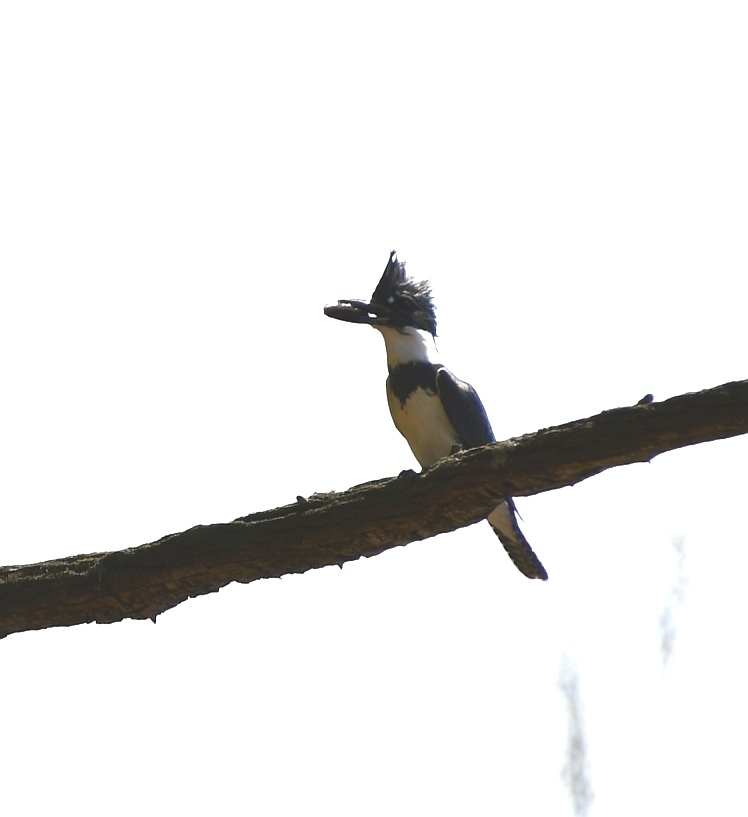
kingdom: Animalia
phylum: Chordata
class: Aves
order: Coraciiformes
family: Alcedinidae
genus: Megaceryle
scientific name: Megaceryle alcyon
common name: Belted kingfisher
